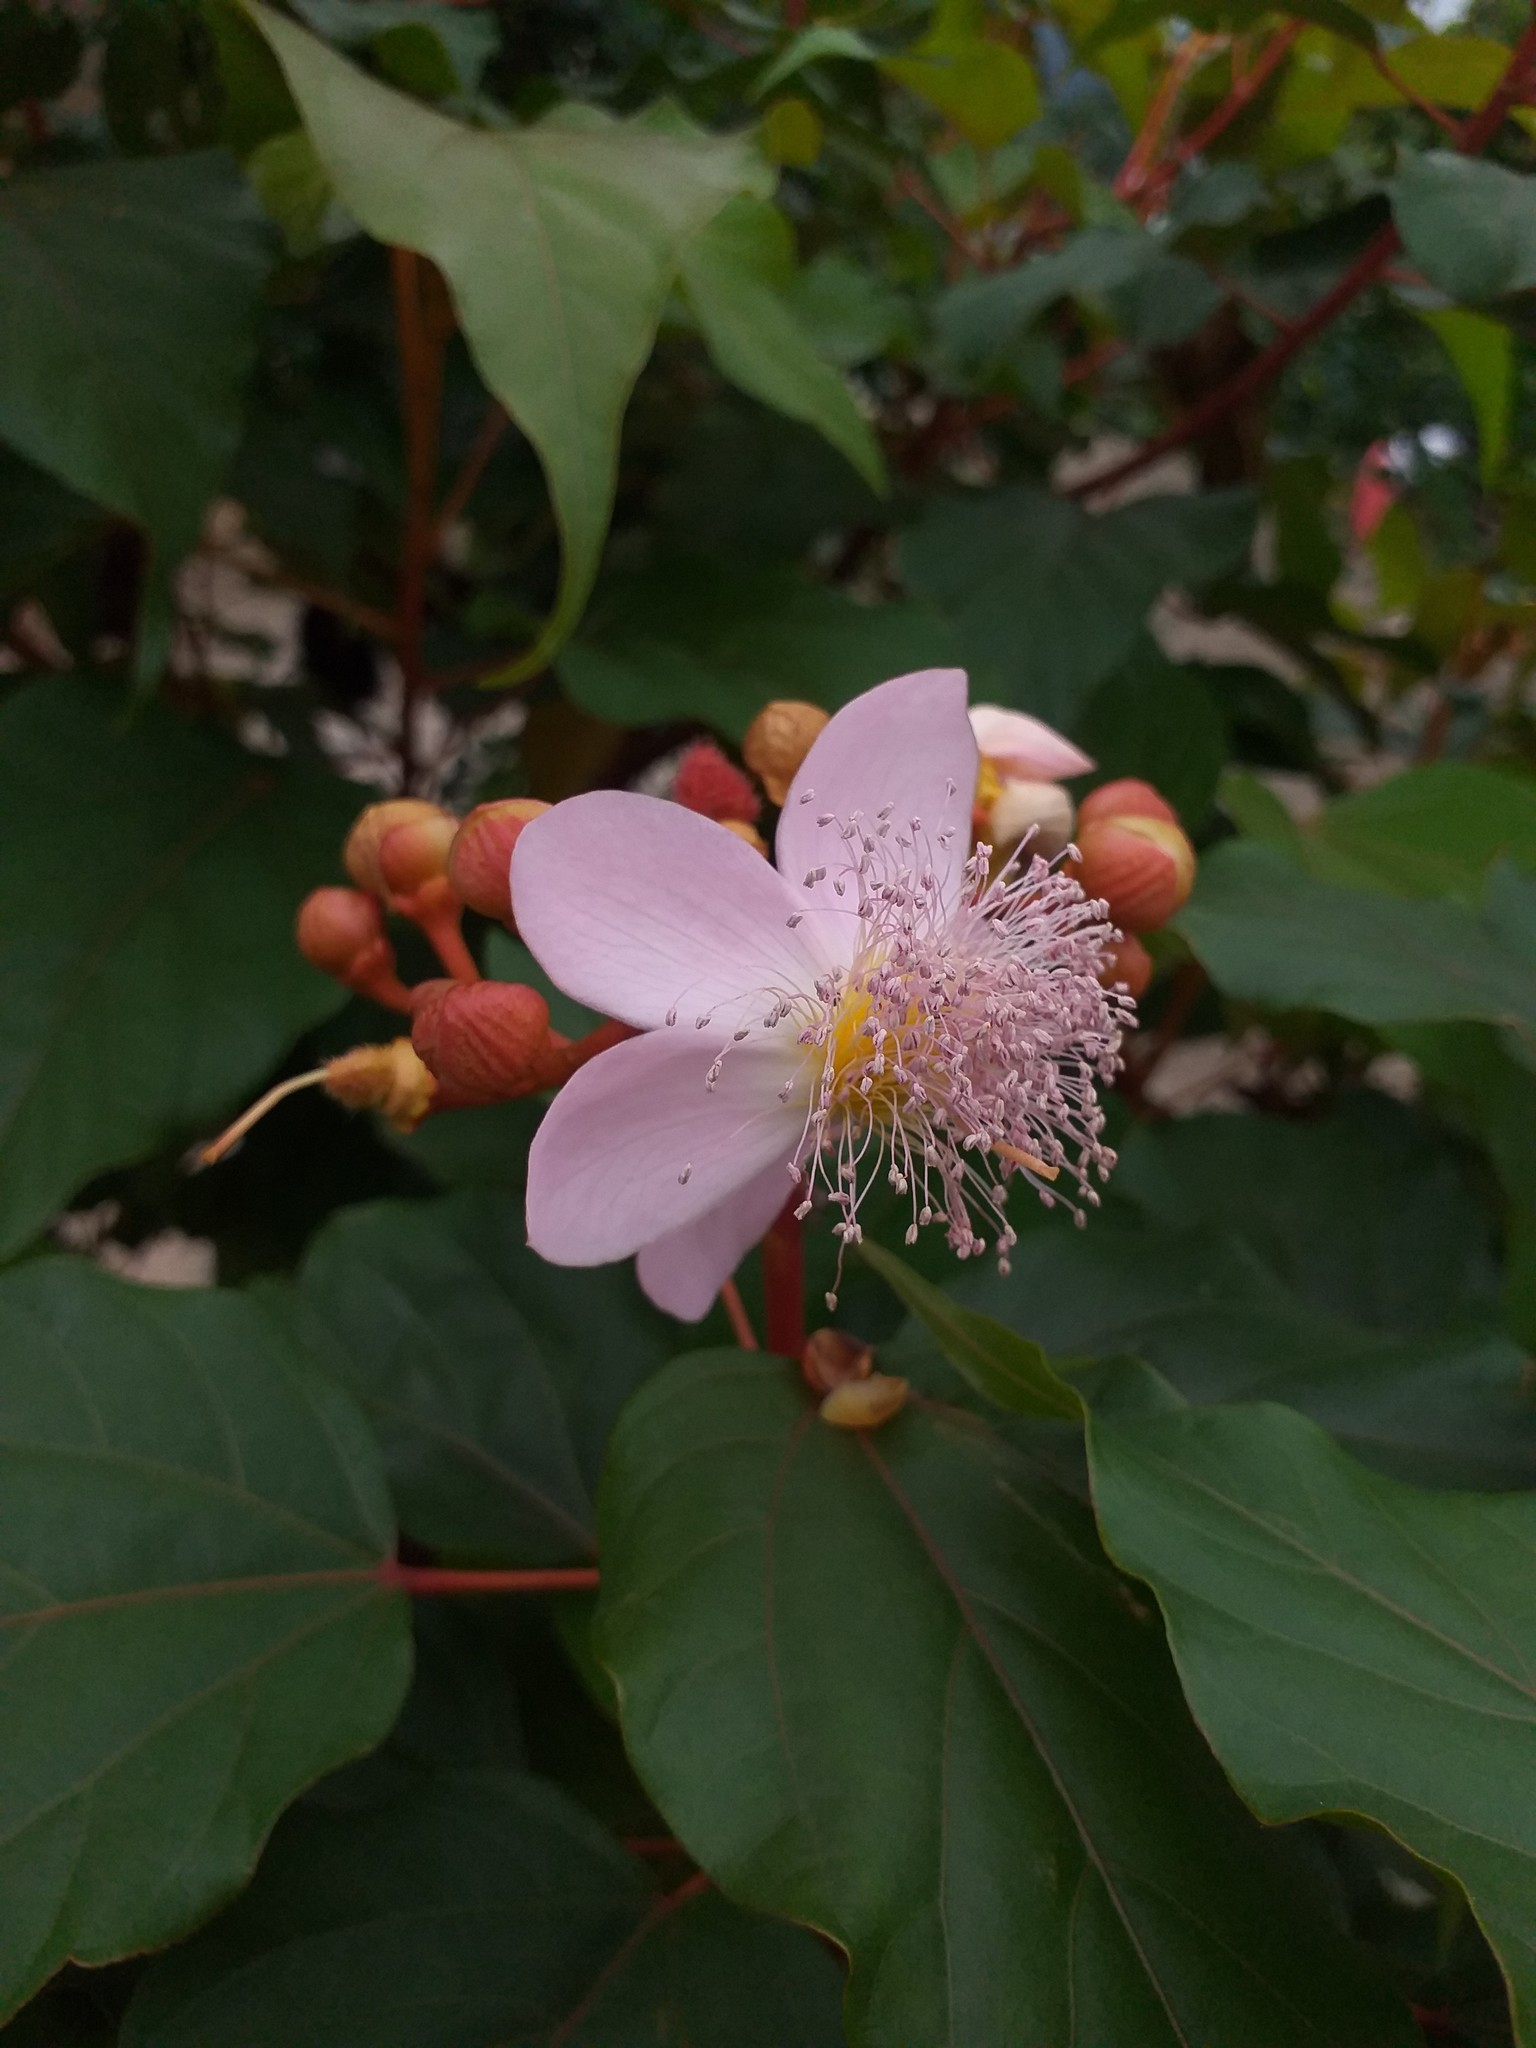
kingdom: Plantae
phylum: Tracheophyta
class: Magnoliopsida
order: Malvales
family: Bixaceae
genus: Bixa
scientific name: Bixa orellana
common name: Lipsticktree
